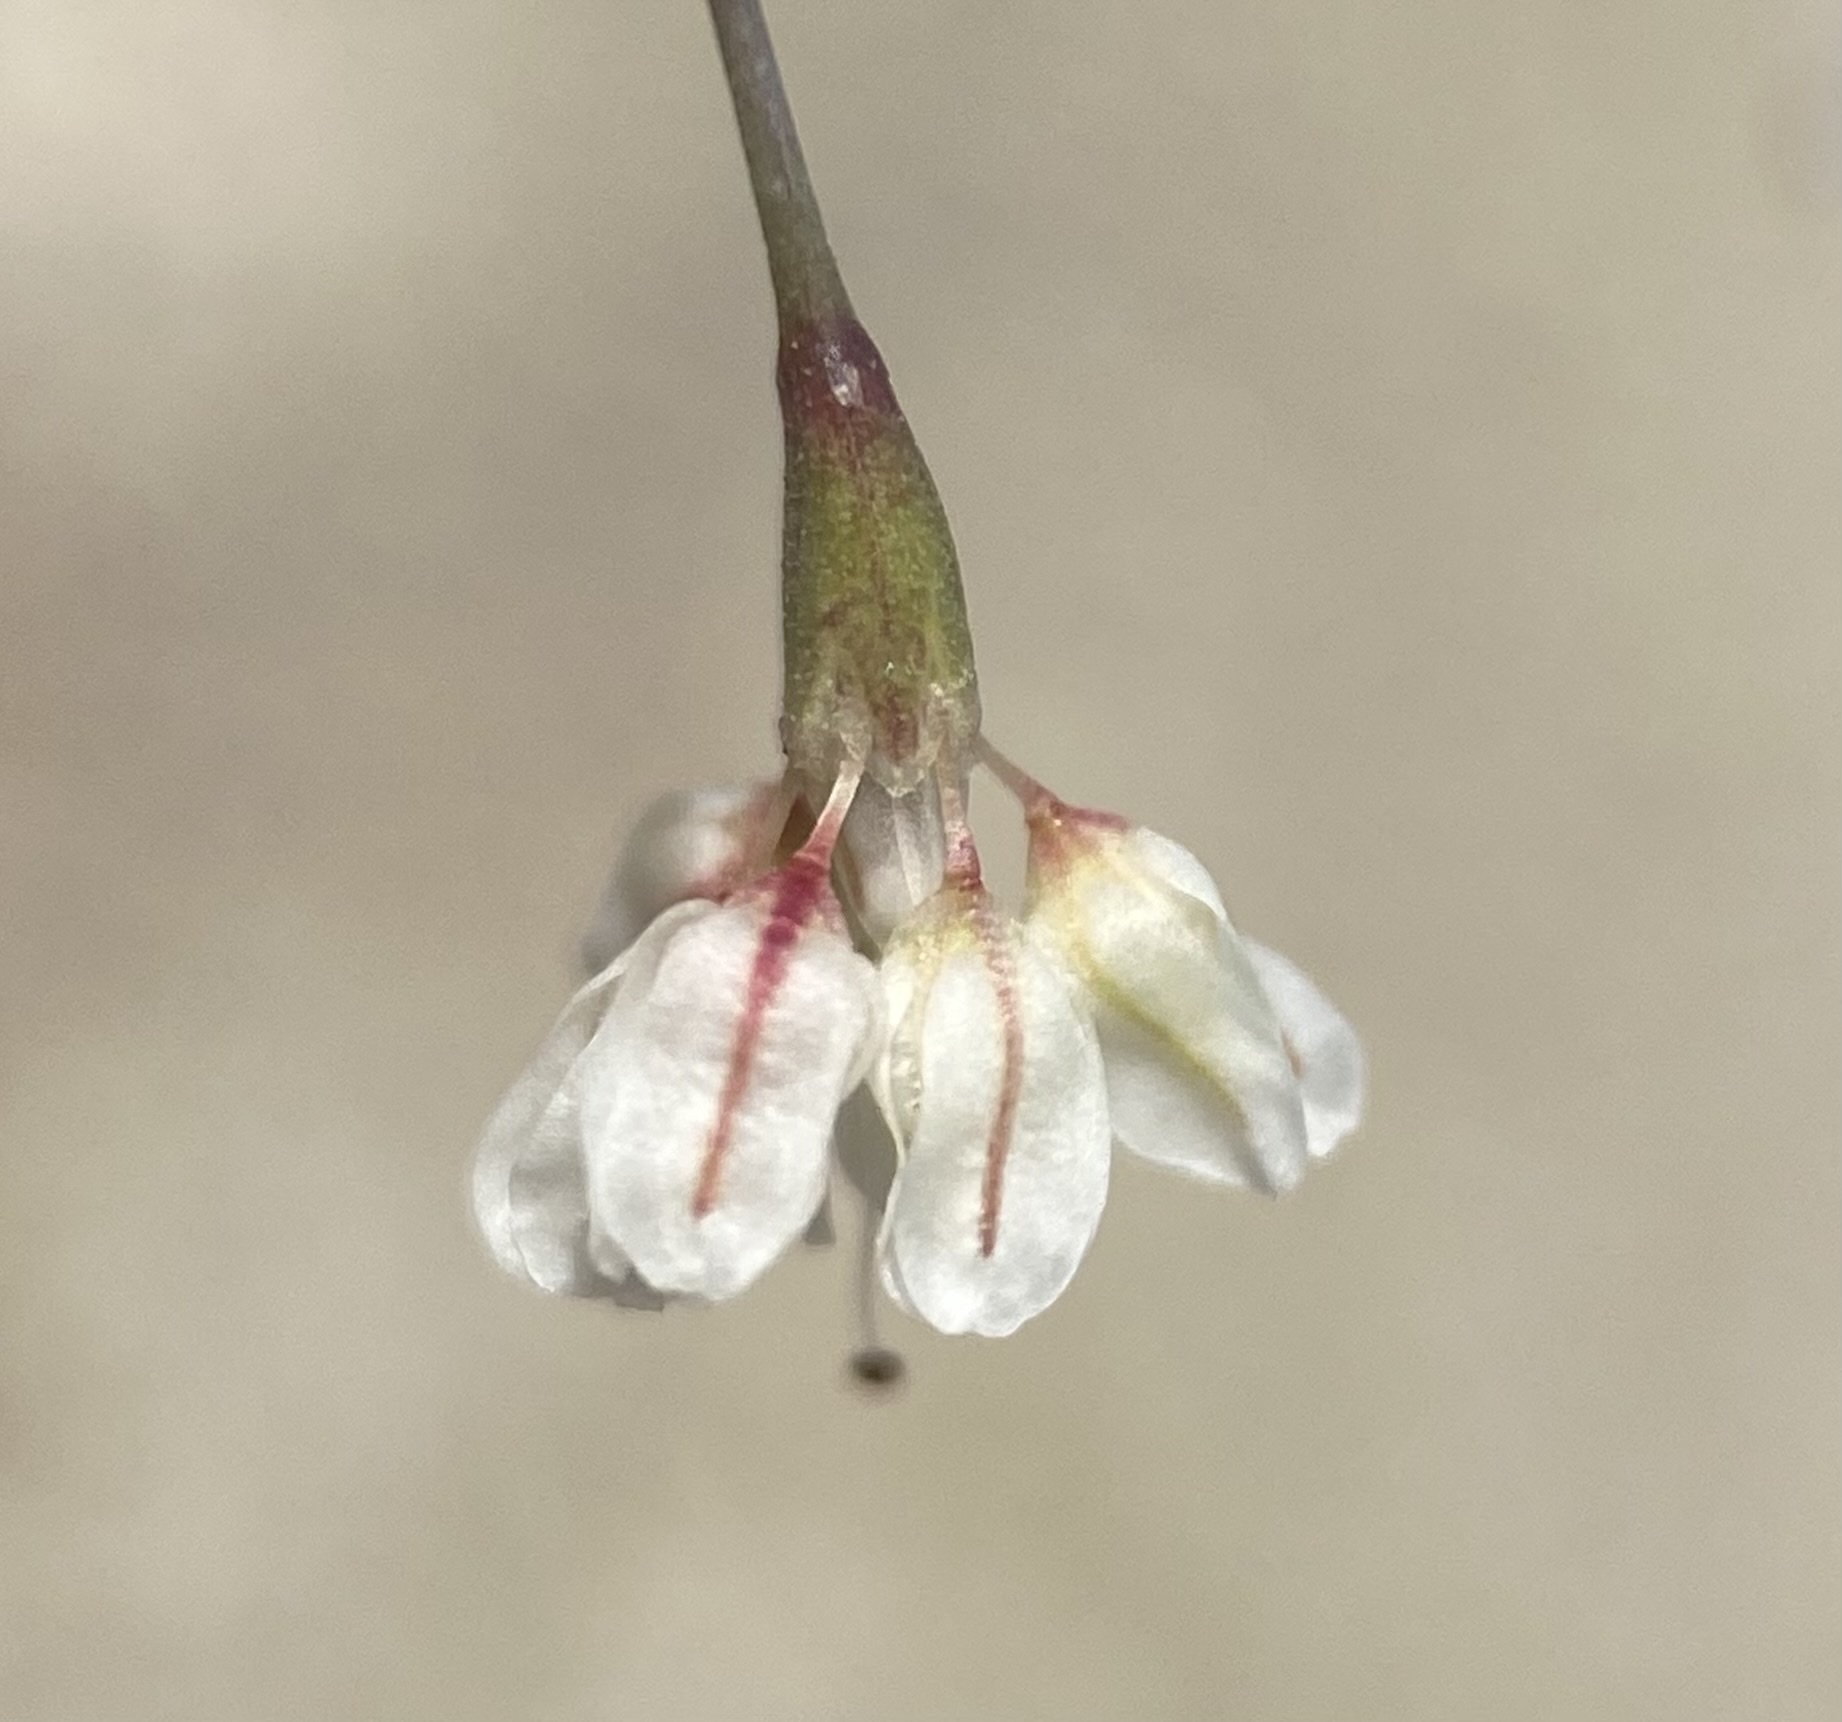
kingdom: Plantae
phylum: Tracheophyta
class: Magnoliopsida
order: Caryophyllales
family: Polygonaceae
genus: Eriogonum
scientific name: Eriogonum watsonii
